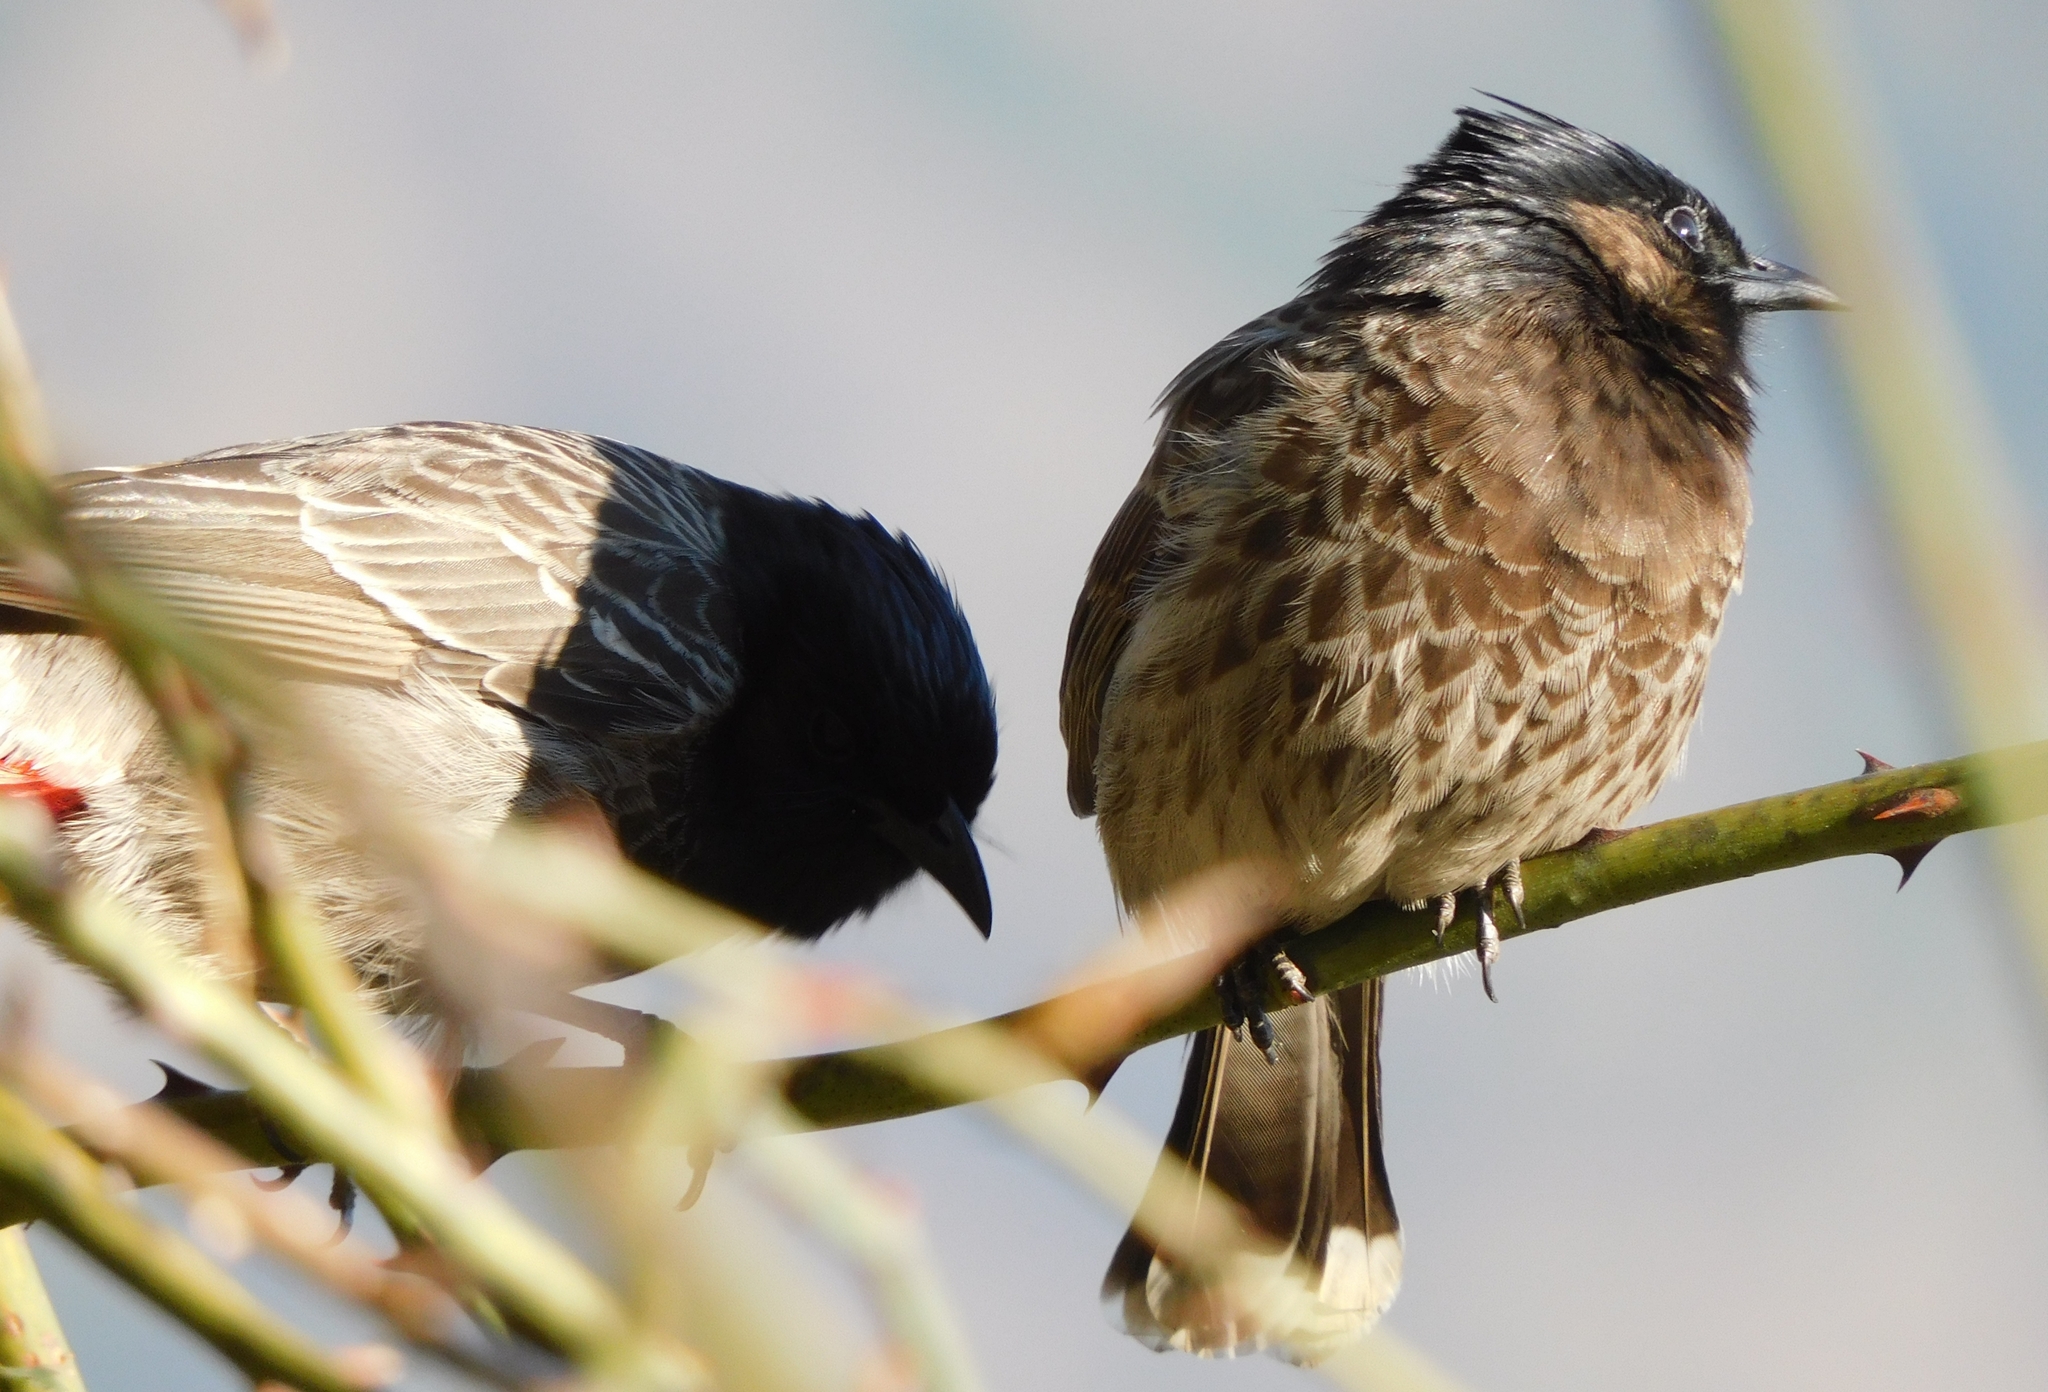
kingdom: Animalia
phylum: Chordata
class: Aves
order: Passeriformes
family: Pycnonotidae
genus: Pycnonotus
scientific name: Pycnonotus cafer
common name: Red-vented bulbul
